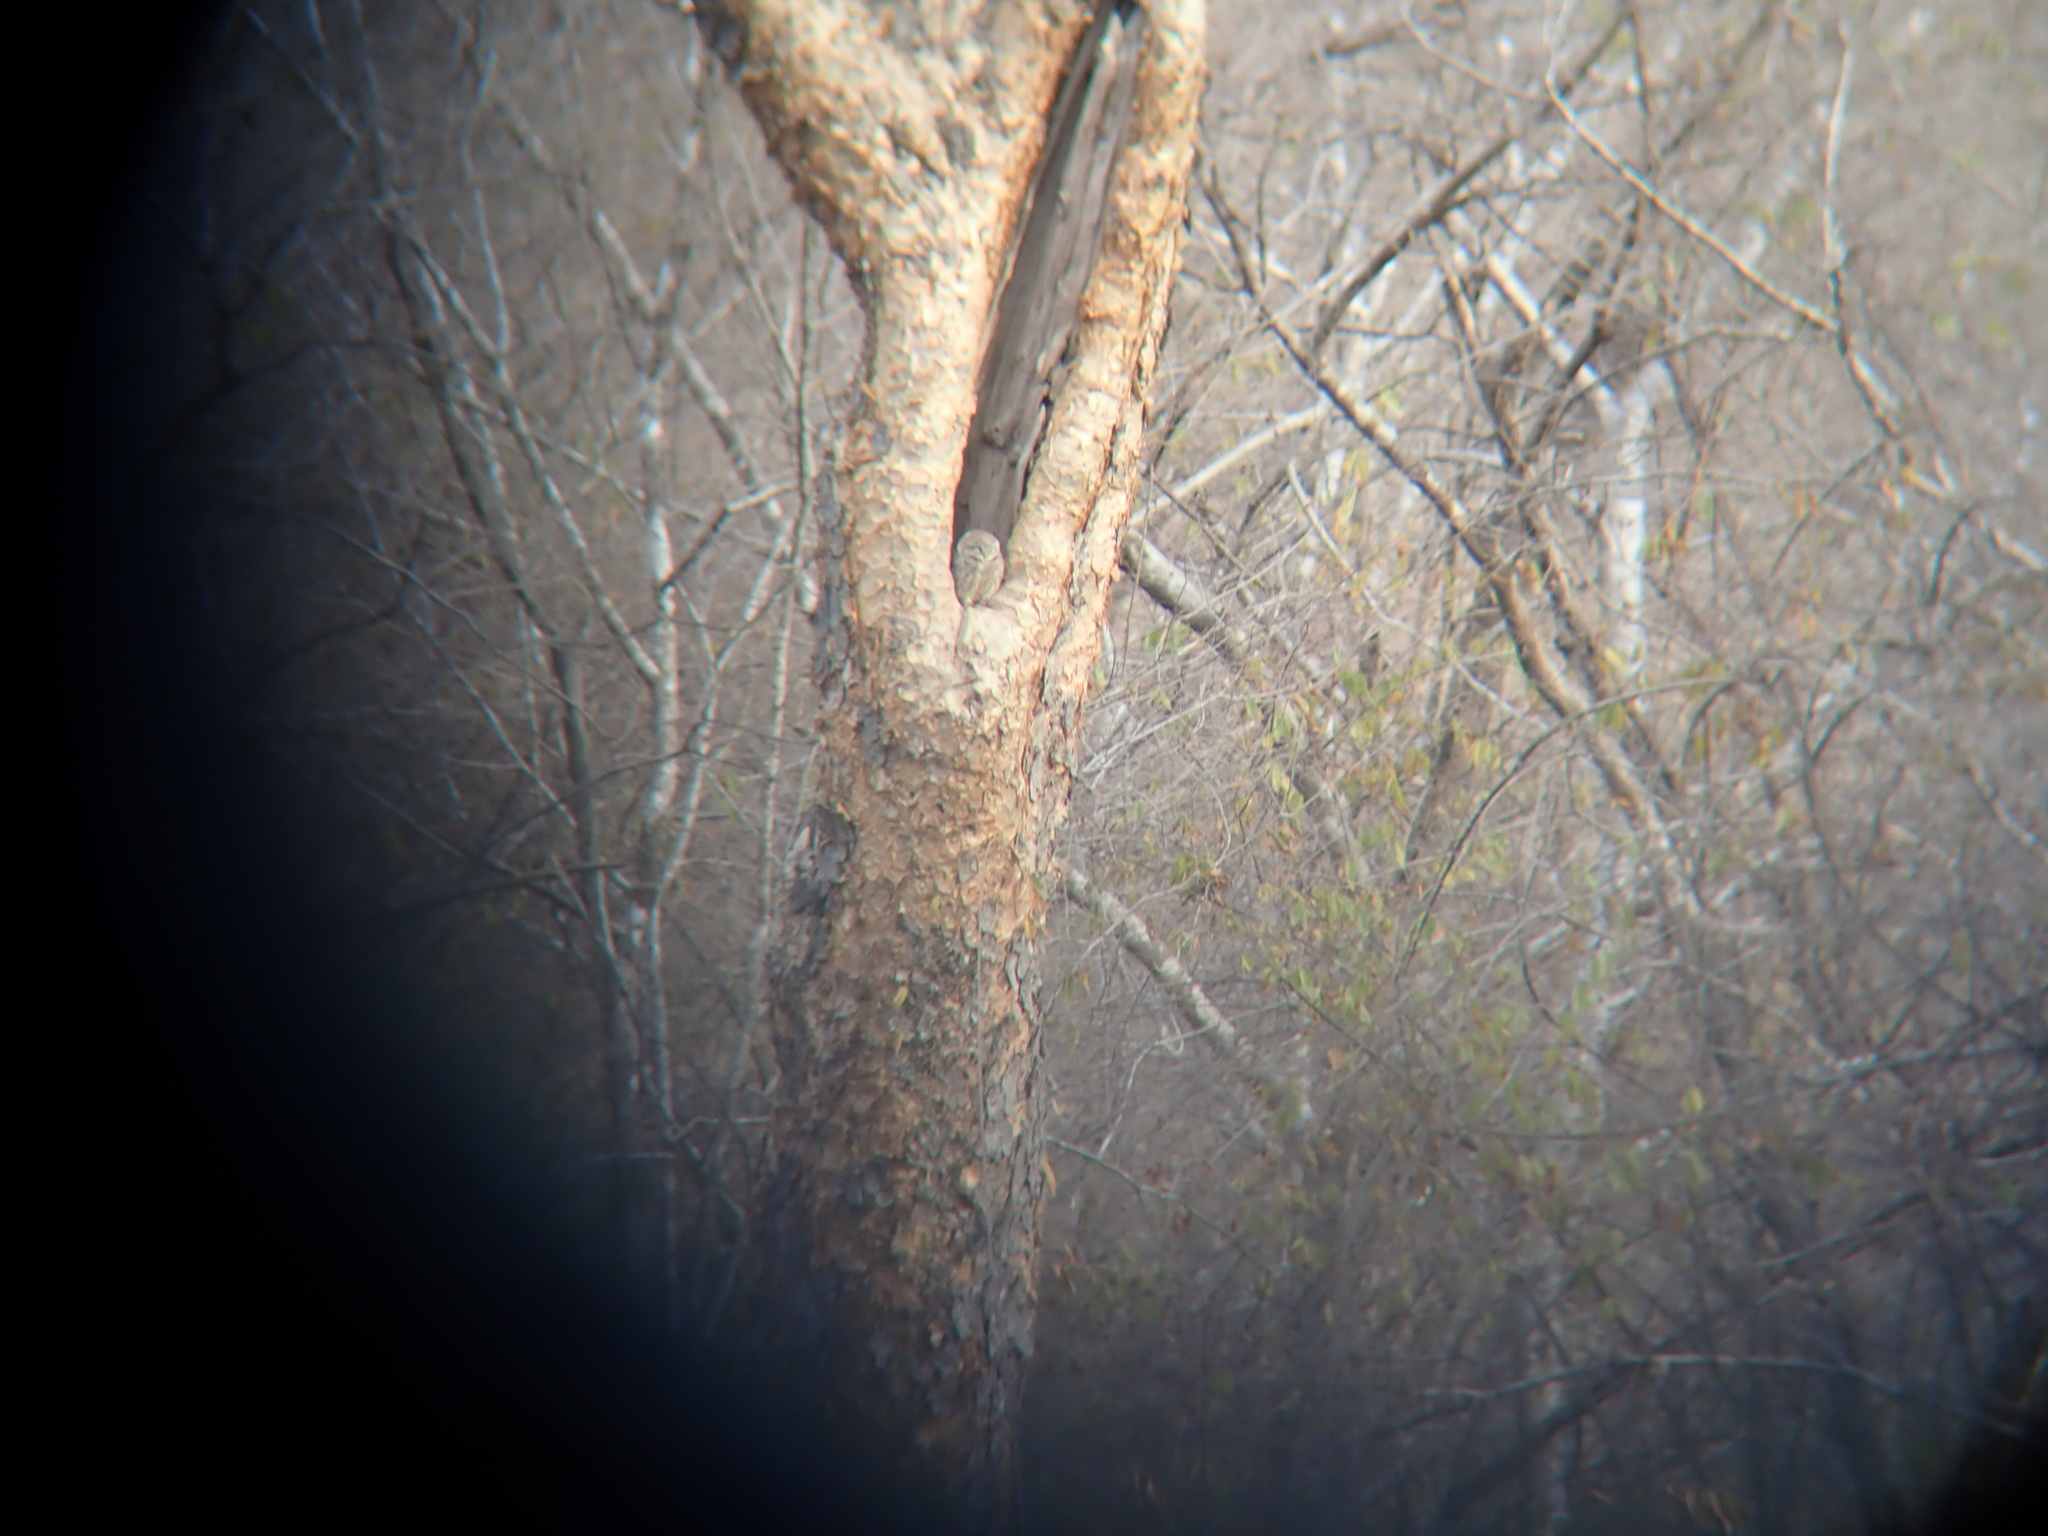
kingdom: Animalia
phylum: Chordata
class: Aves
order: Strigiformes
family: Strigidae
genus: Athene
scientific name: Athene brama
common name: Spotted owlet
